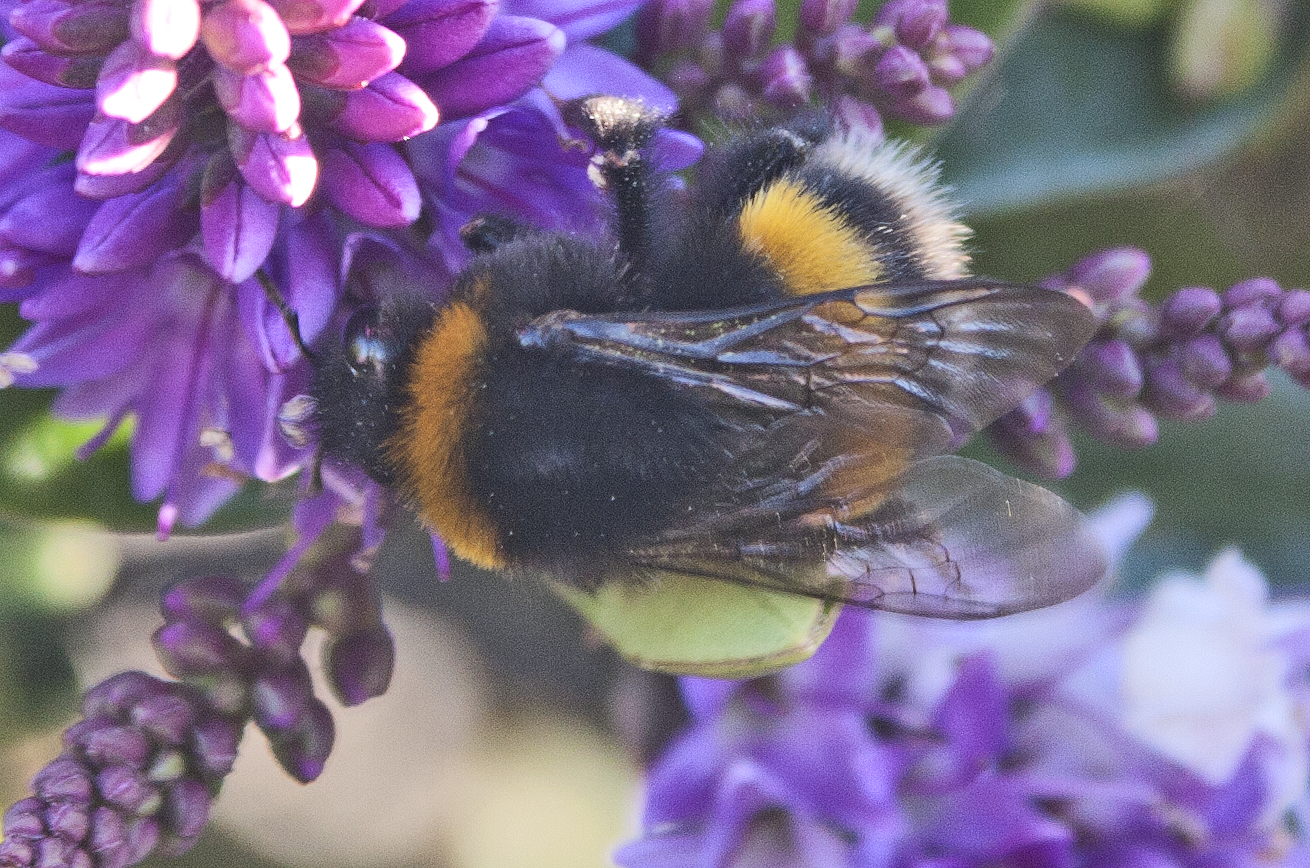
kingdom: Animalia
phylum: Arthropoda
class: Insecta
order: Hymenoptera
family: Apidae
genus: Bombus
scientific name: Bombus terrestris
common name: Buff-tailed bumblebee
